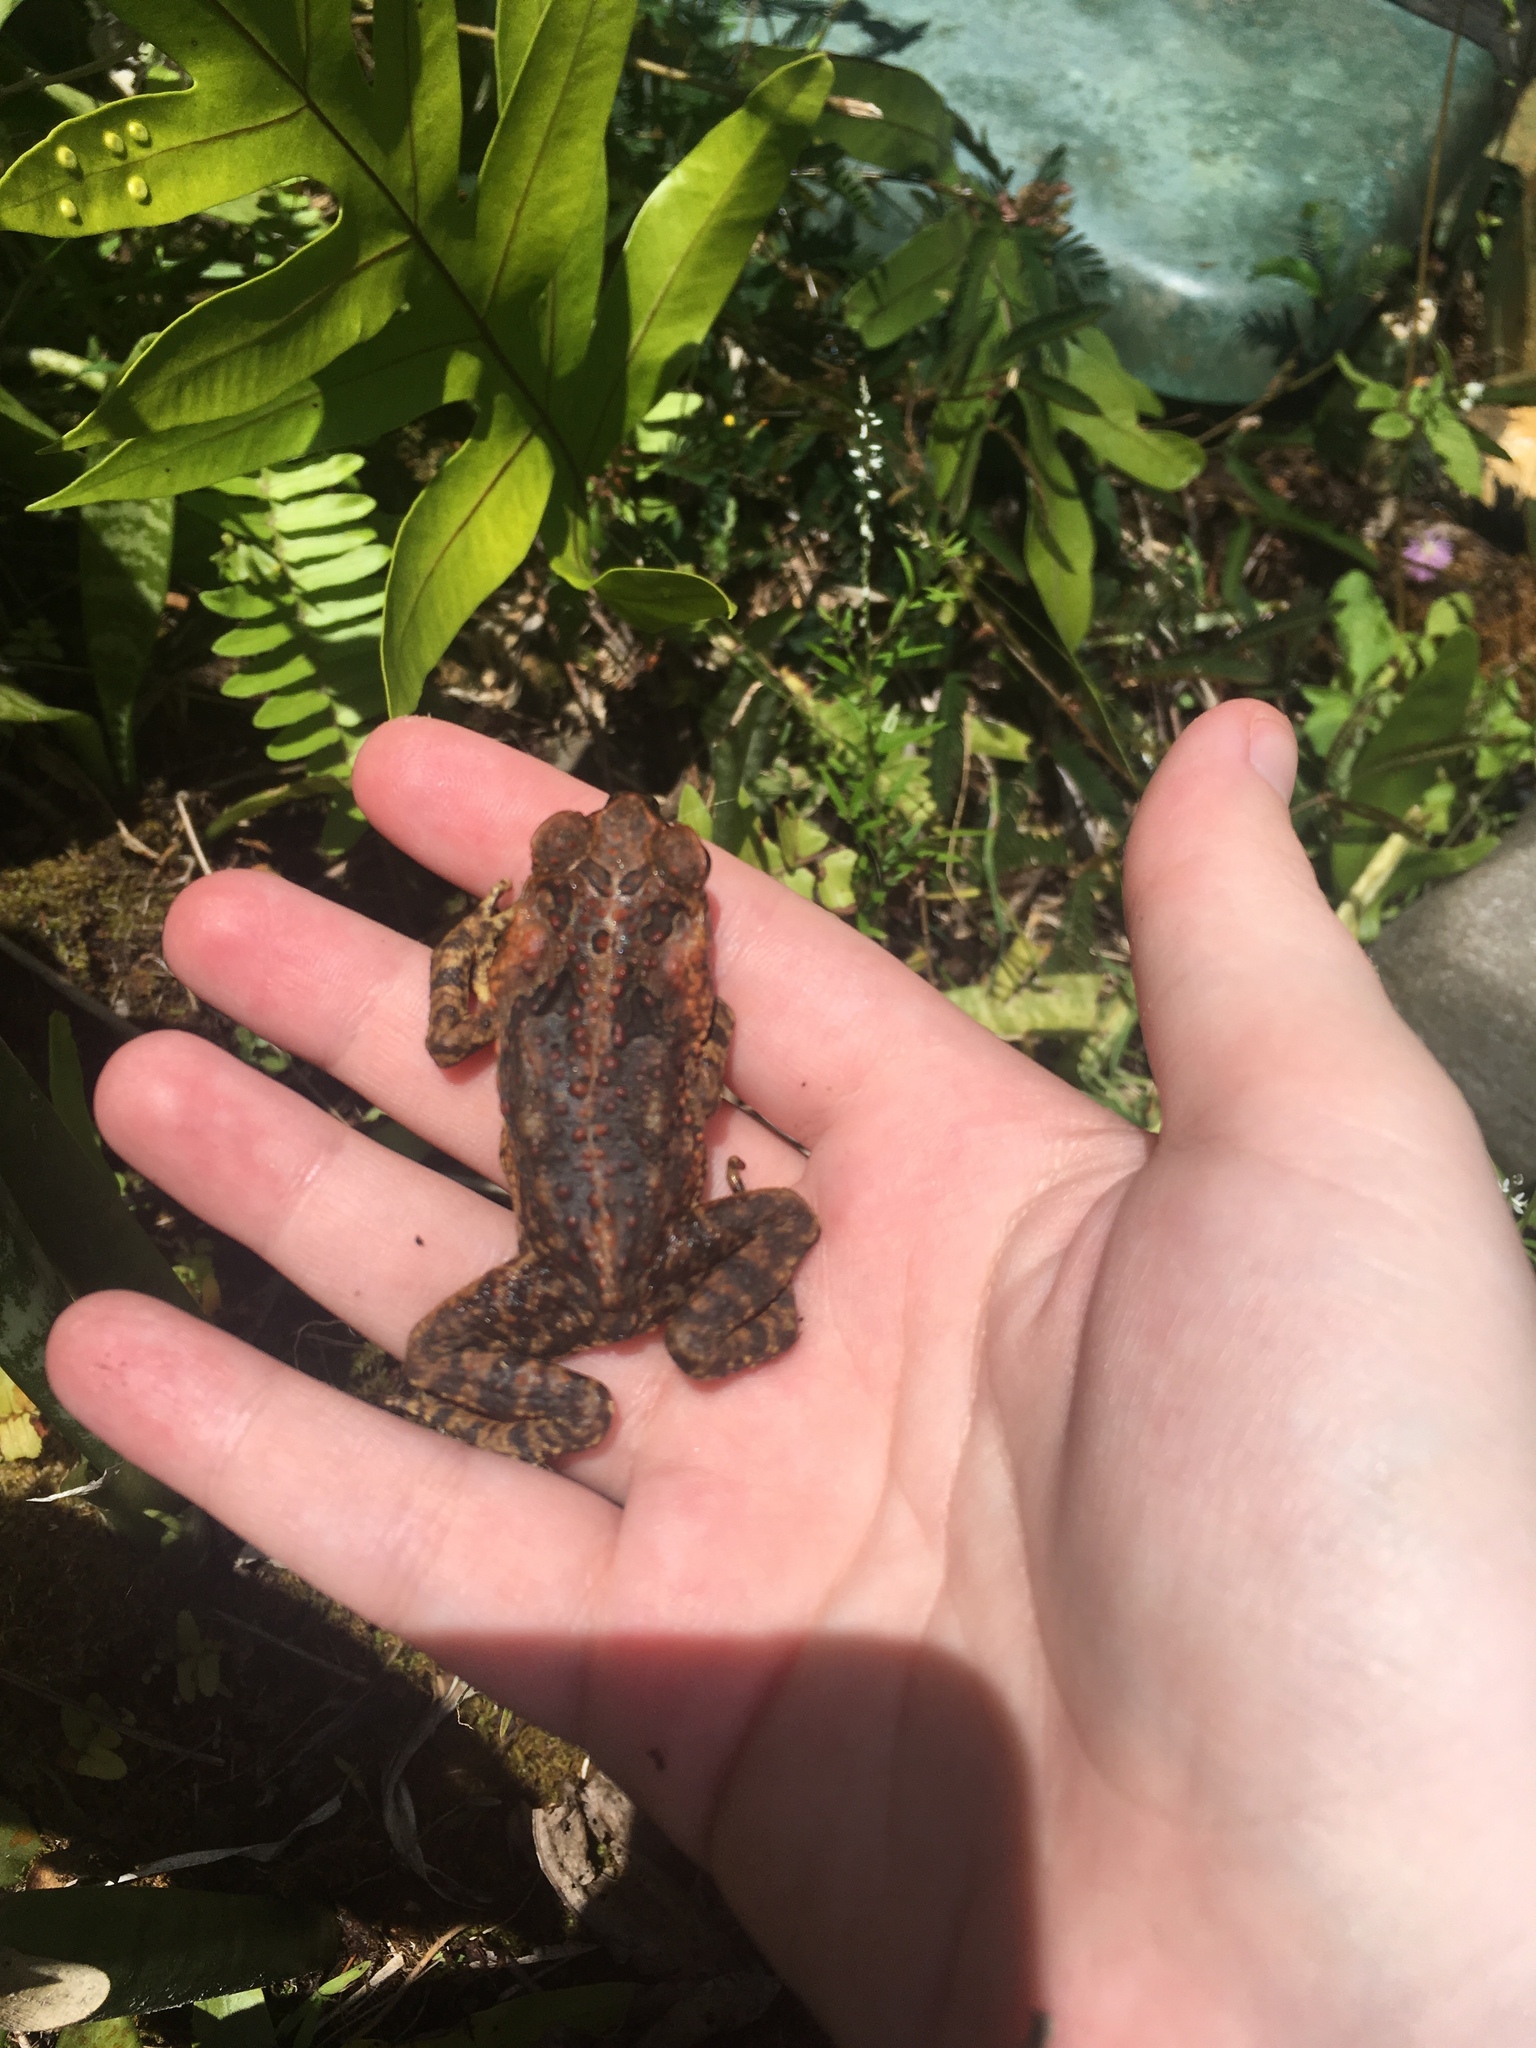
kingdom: Animalia
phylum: Chordata
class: Amphibia
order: Anura
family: Bufonidae
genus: Rhinella
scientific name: Rhinella marina
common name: Cane toad
